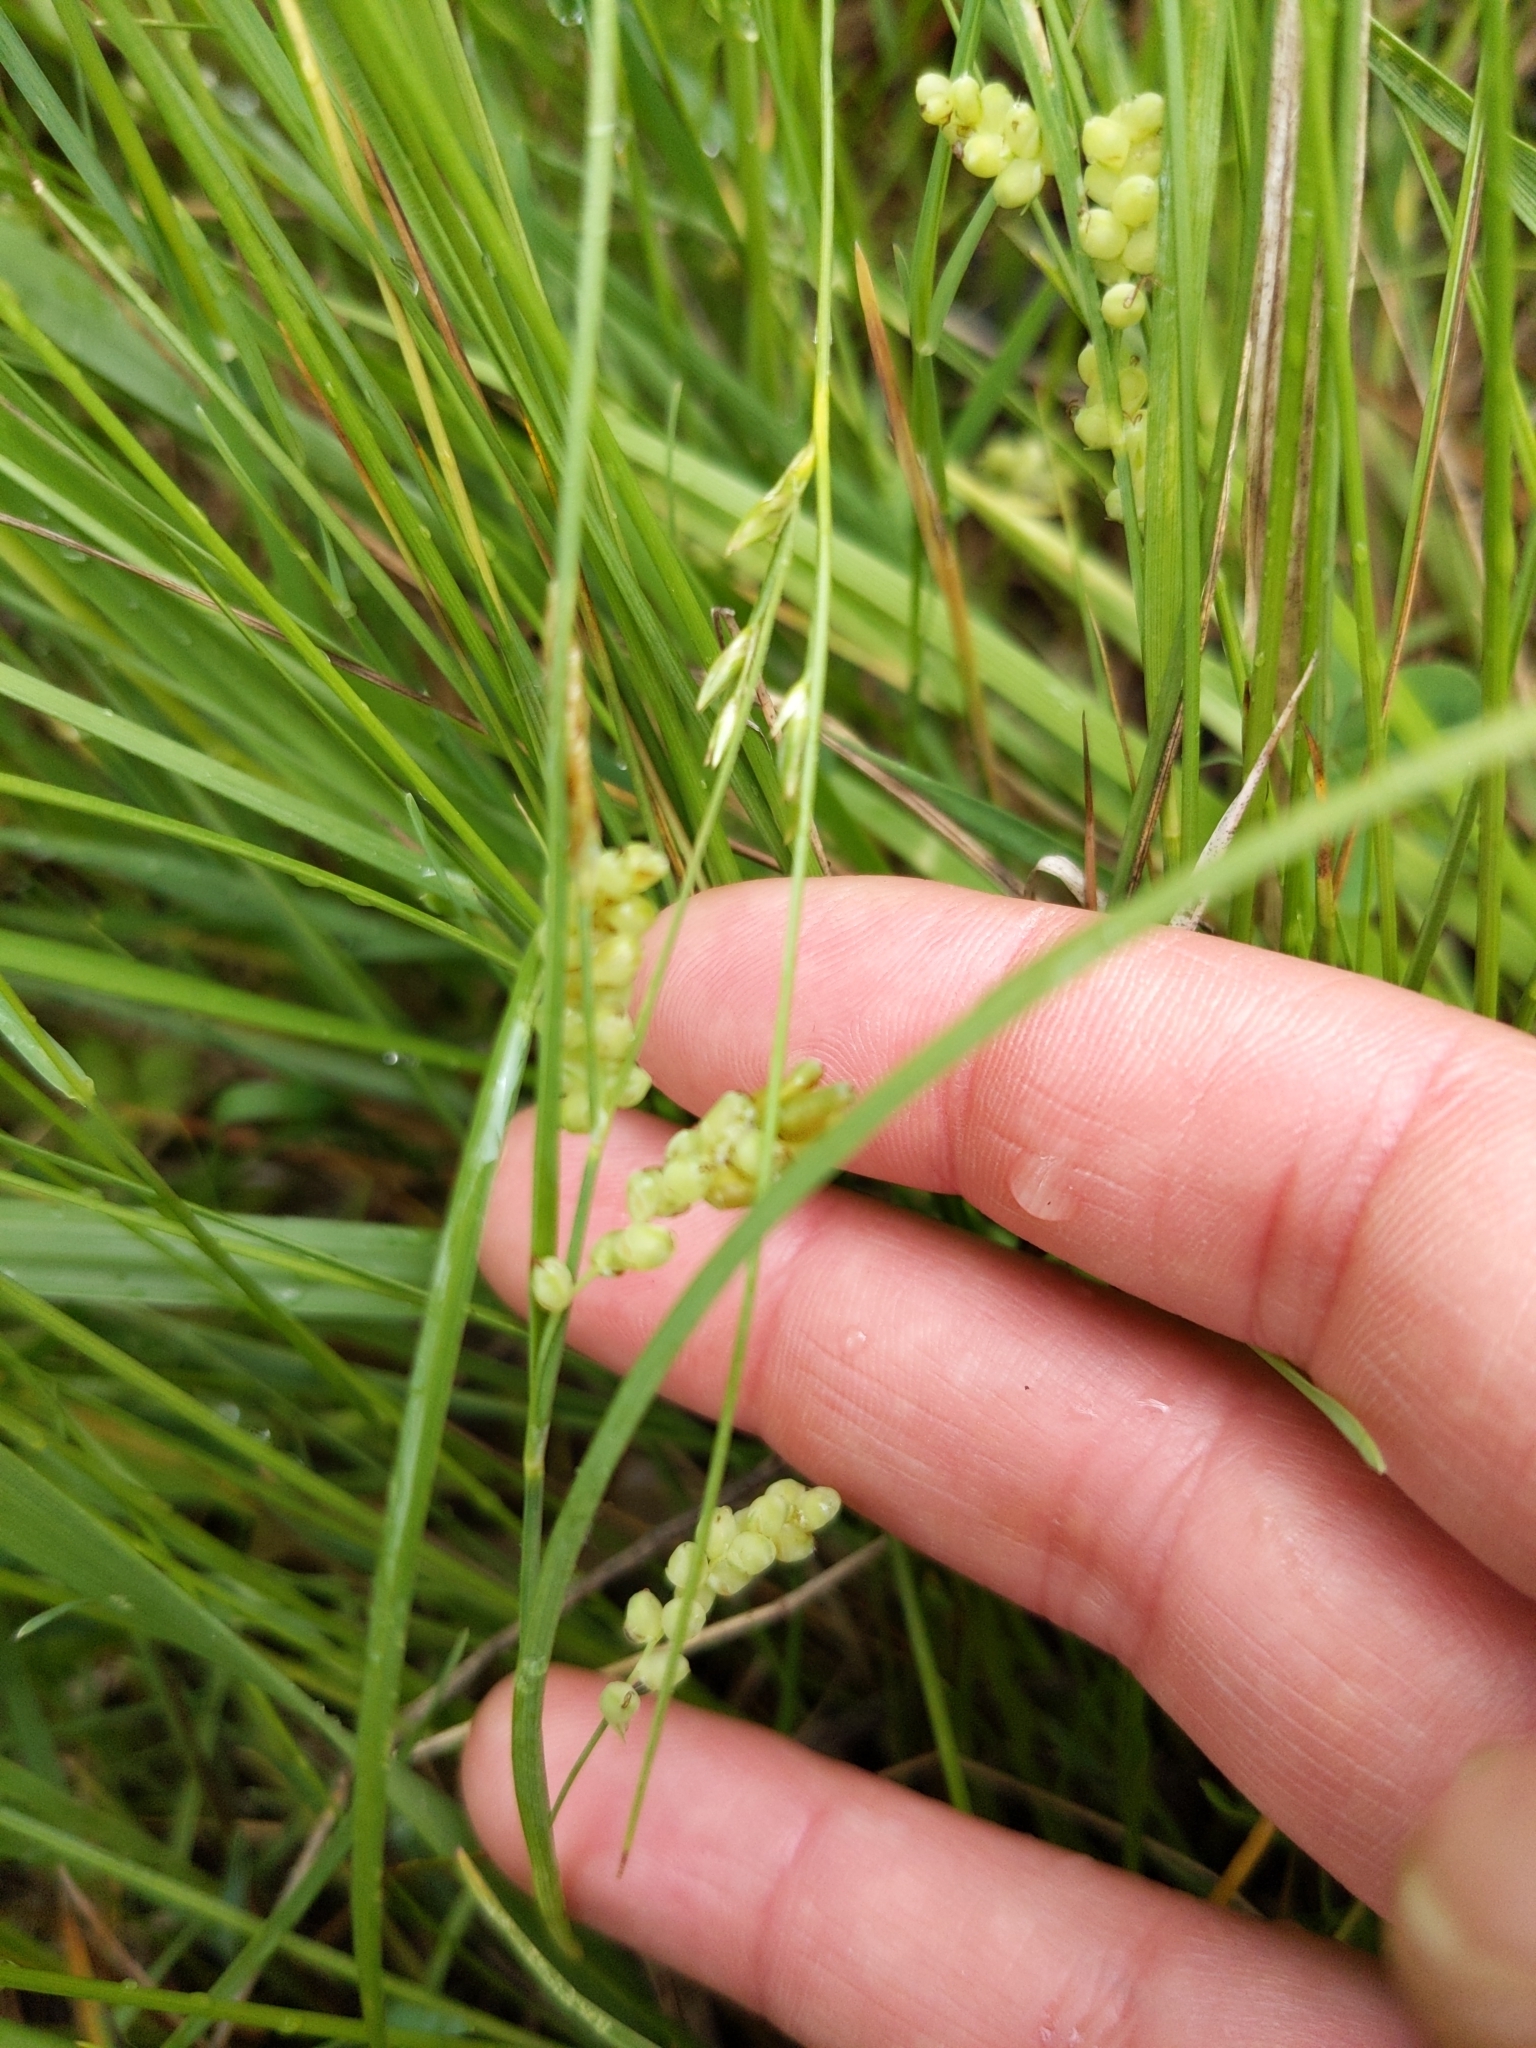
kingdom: Plantae
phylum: Tracheophyta
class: Liliopsida
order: Poales
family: Cyperaceae
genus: Carex
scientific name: Carex aurea
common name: Golden sedge
